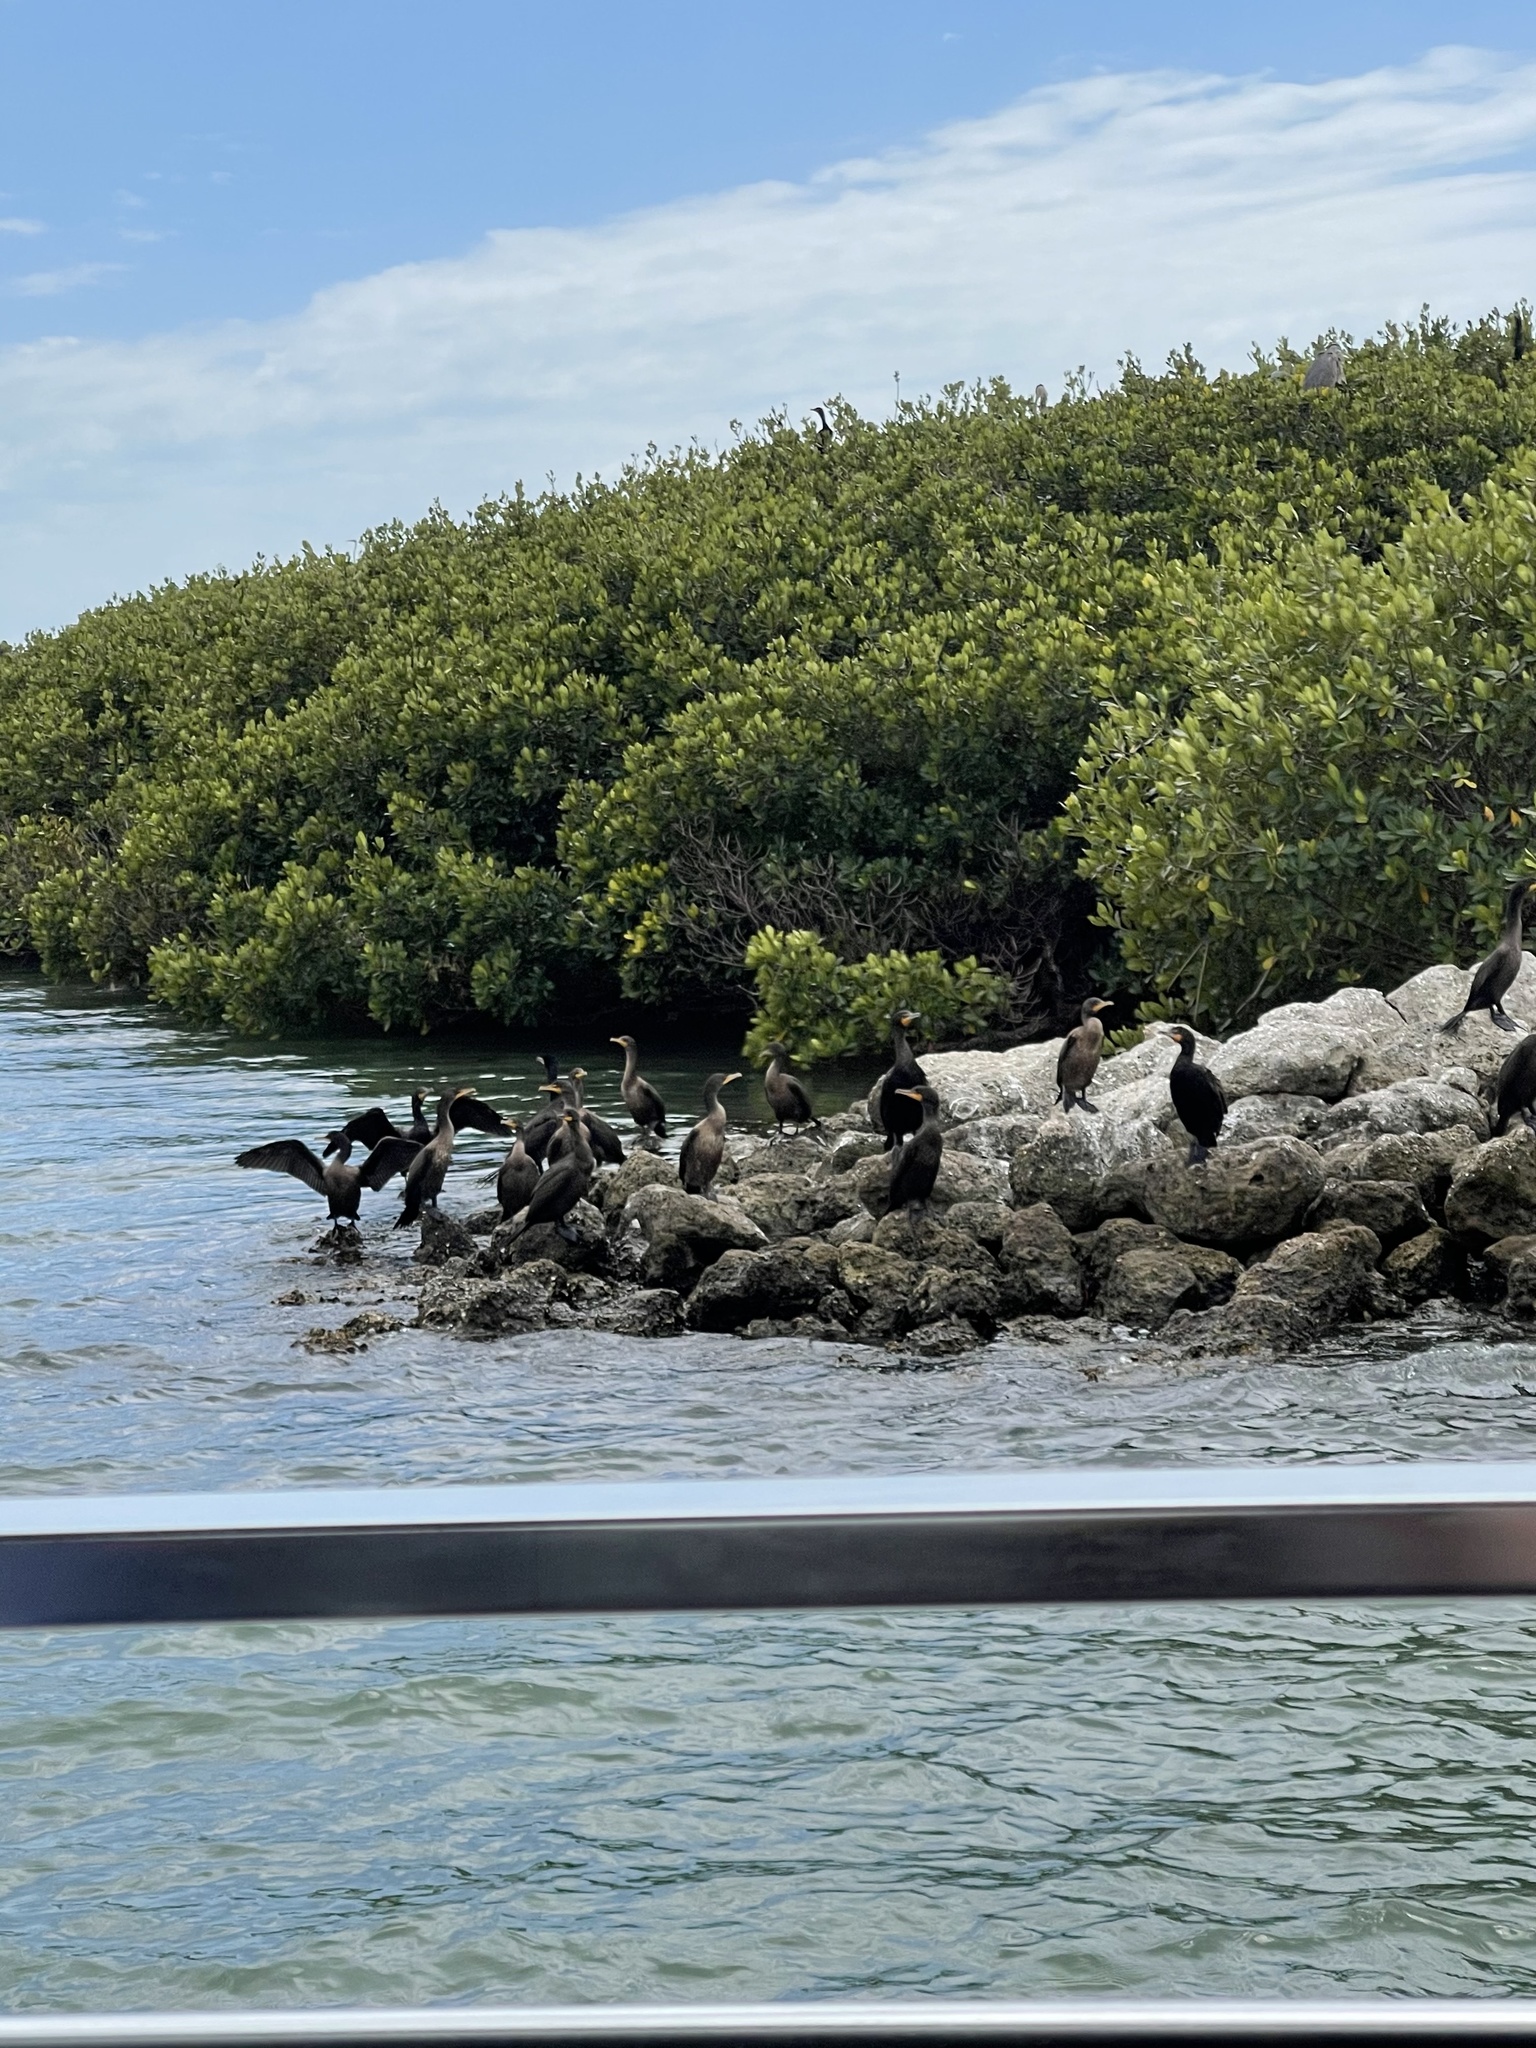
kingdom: Animalia
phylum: Chordata
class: Aves
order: Suliformes
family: Phalacrocoracidae
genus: Phalacrocorax
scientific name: Phalacrocorax auritus
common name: Double-crested cormorant
